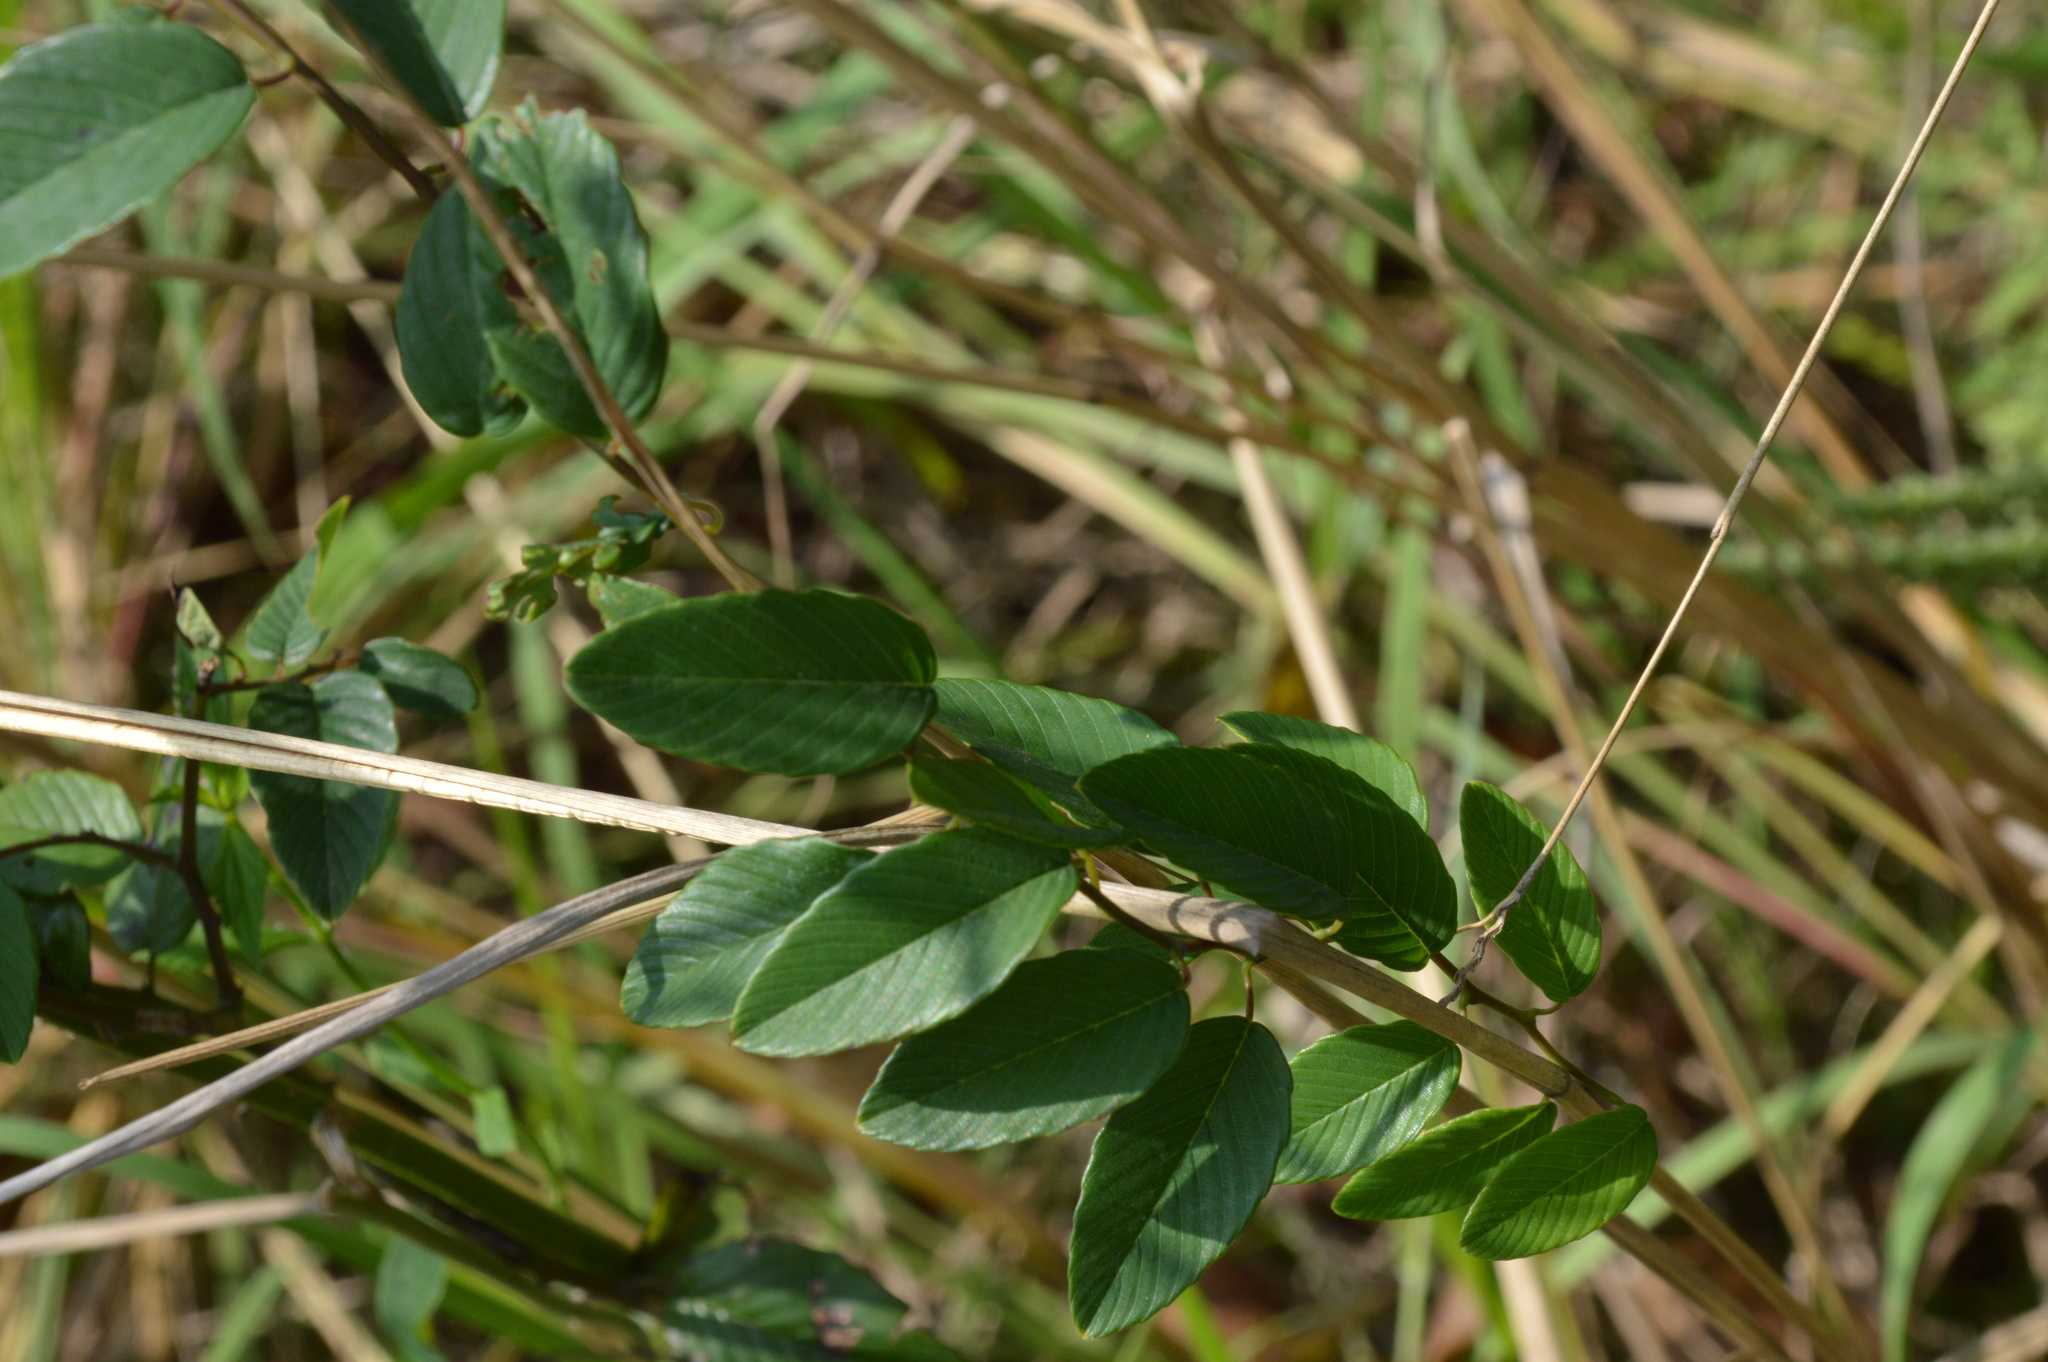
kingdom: Plantae
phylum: Tracheophyta
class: Magnoliopsida
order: Rosales
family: Rhamnaceae
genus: Berchemia
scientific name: Berchemia scandens
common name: Supplejack
